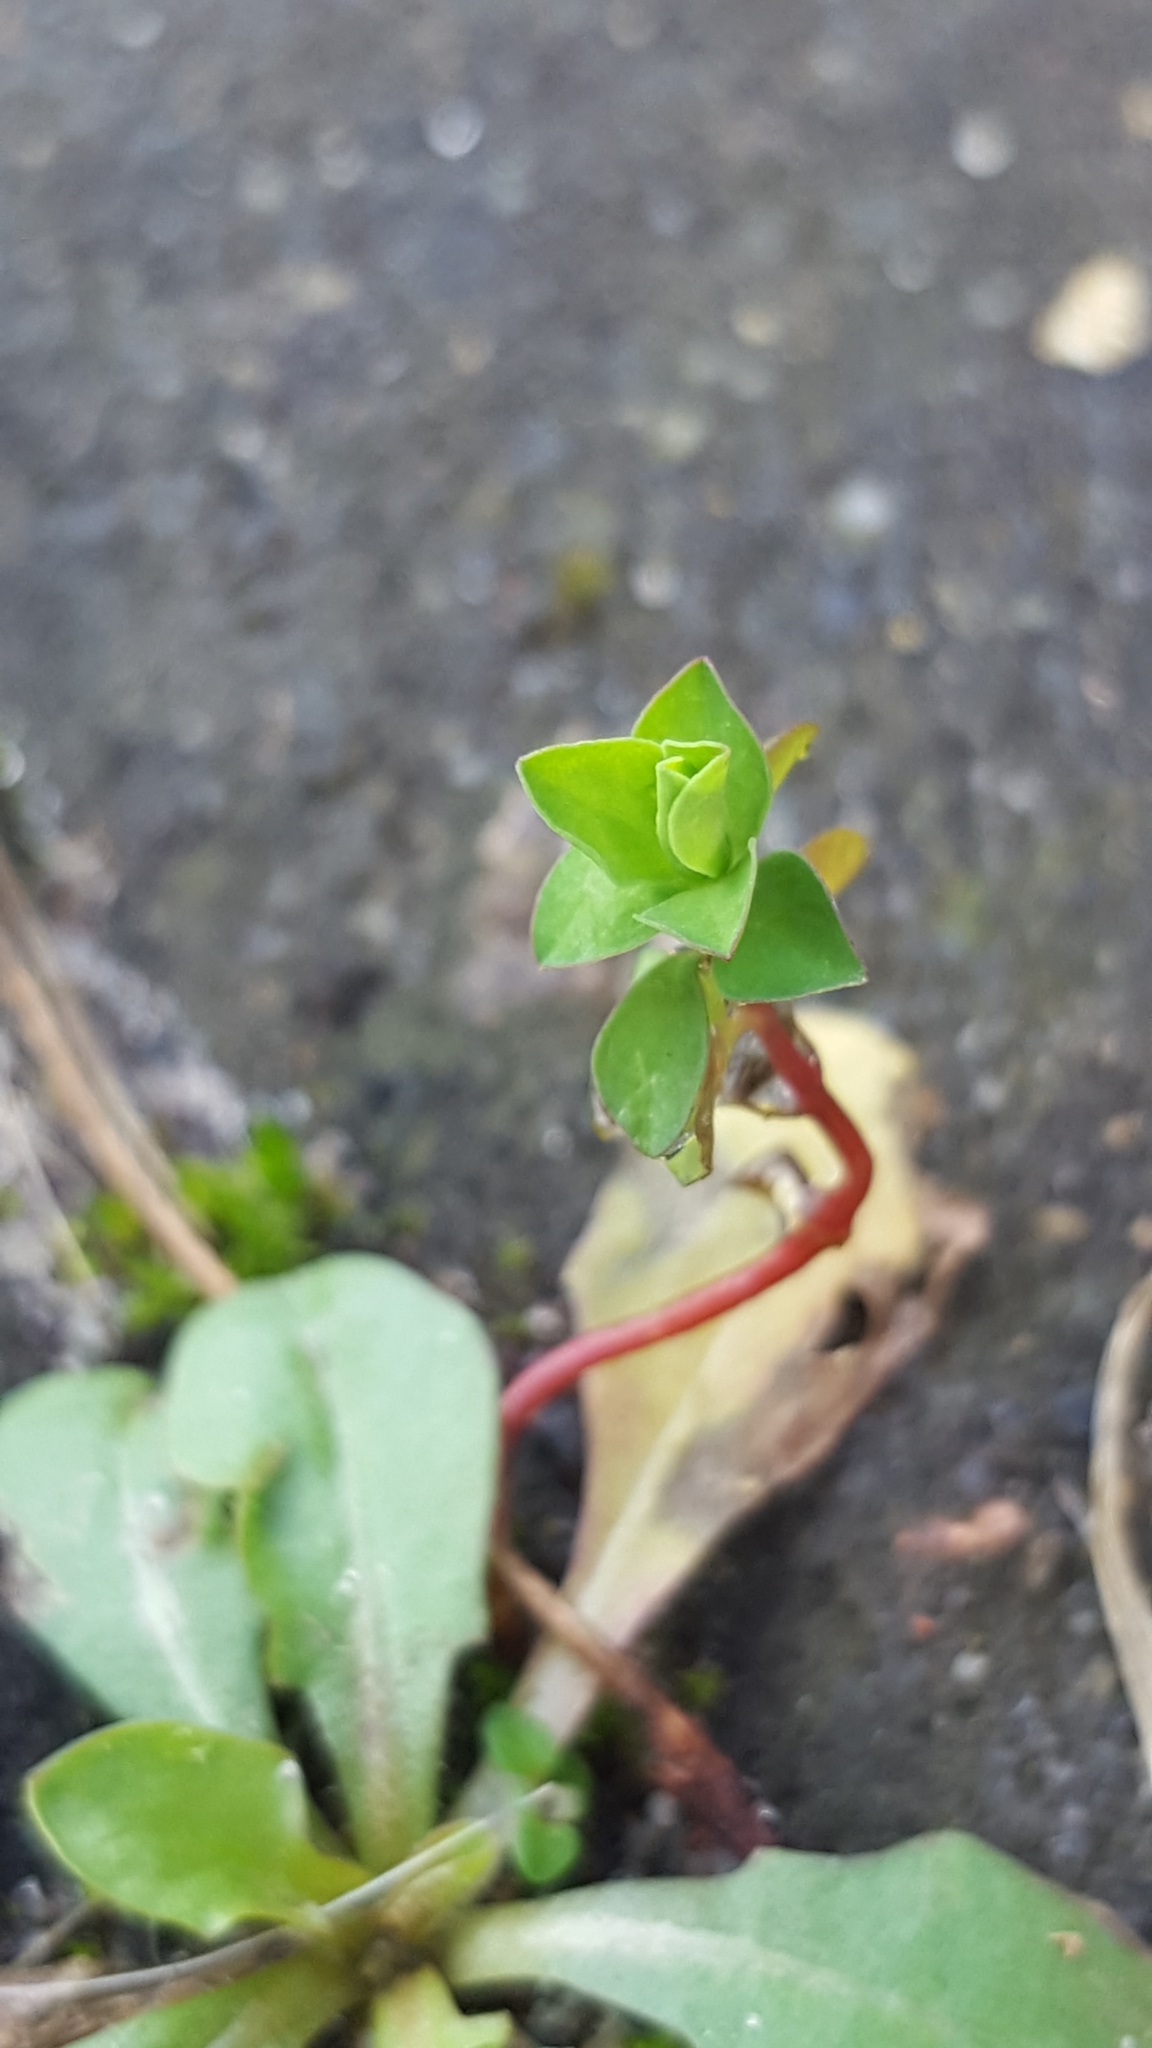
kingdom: Plantae
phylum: Tracheophyta
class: Magnoliopsida
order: Malpighiales
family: Euphorbiaceae
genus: Euphorbia
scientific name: Euphorbia peplus
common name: Petty spurge
